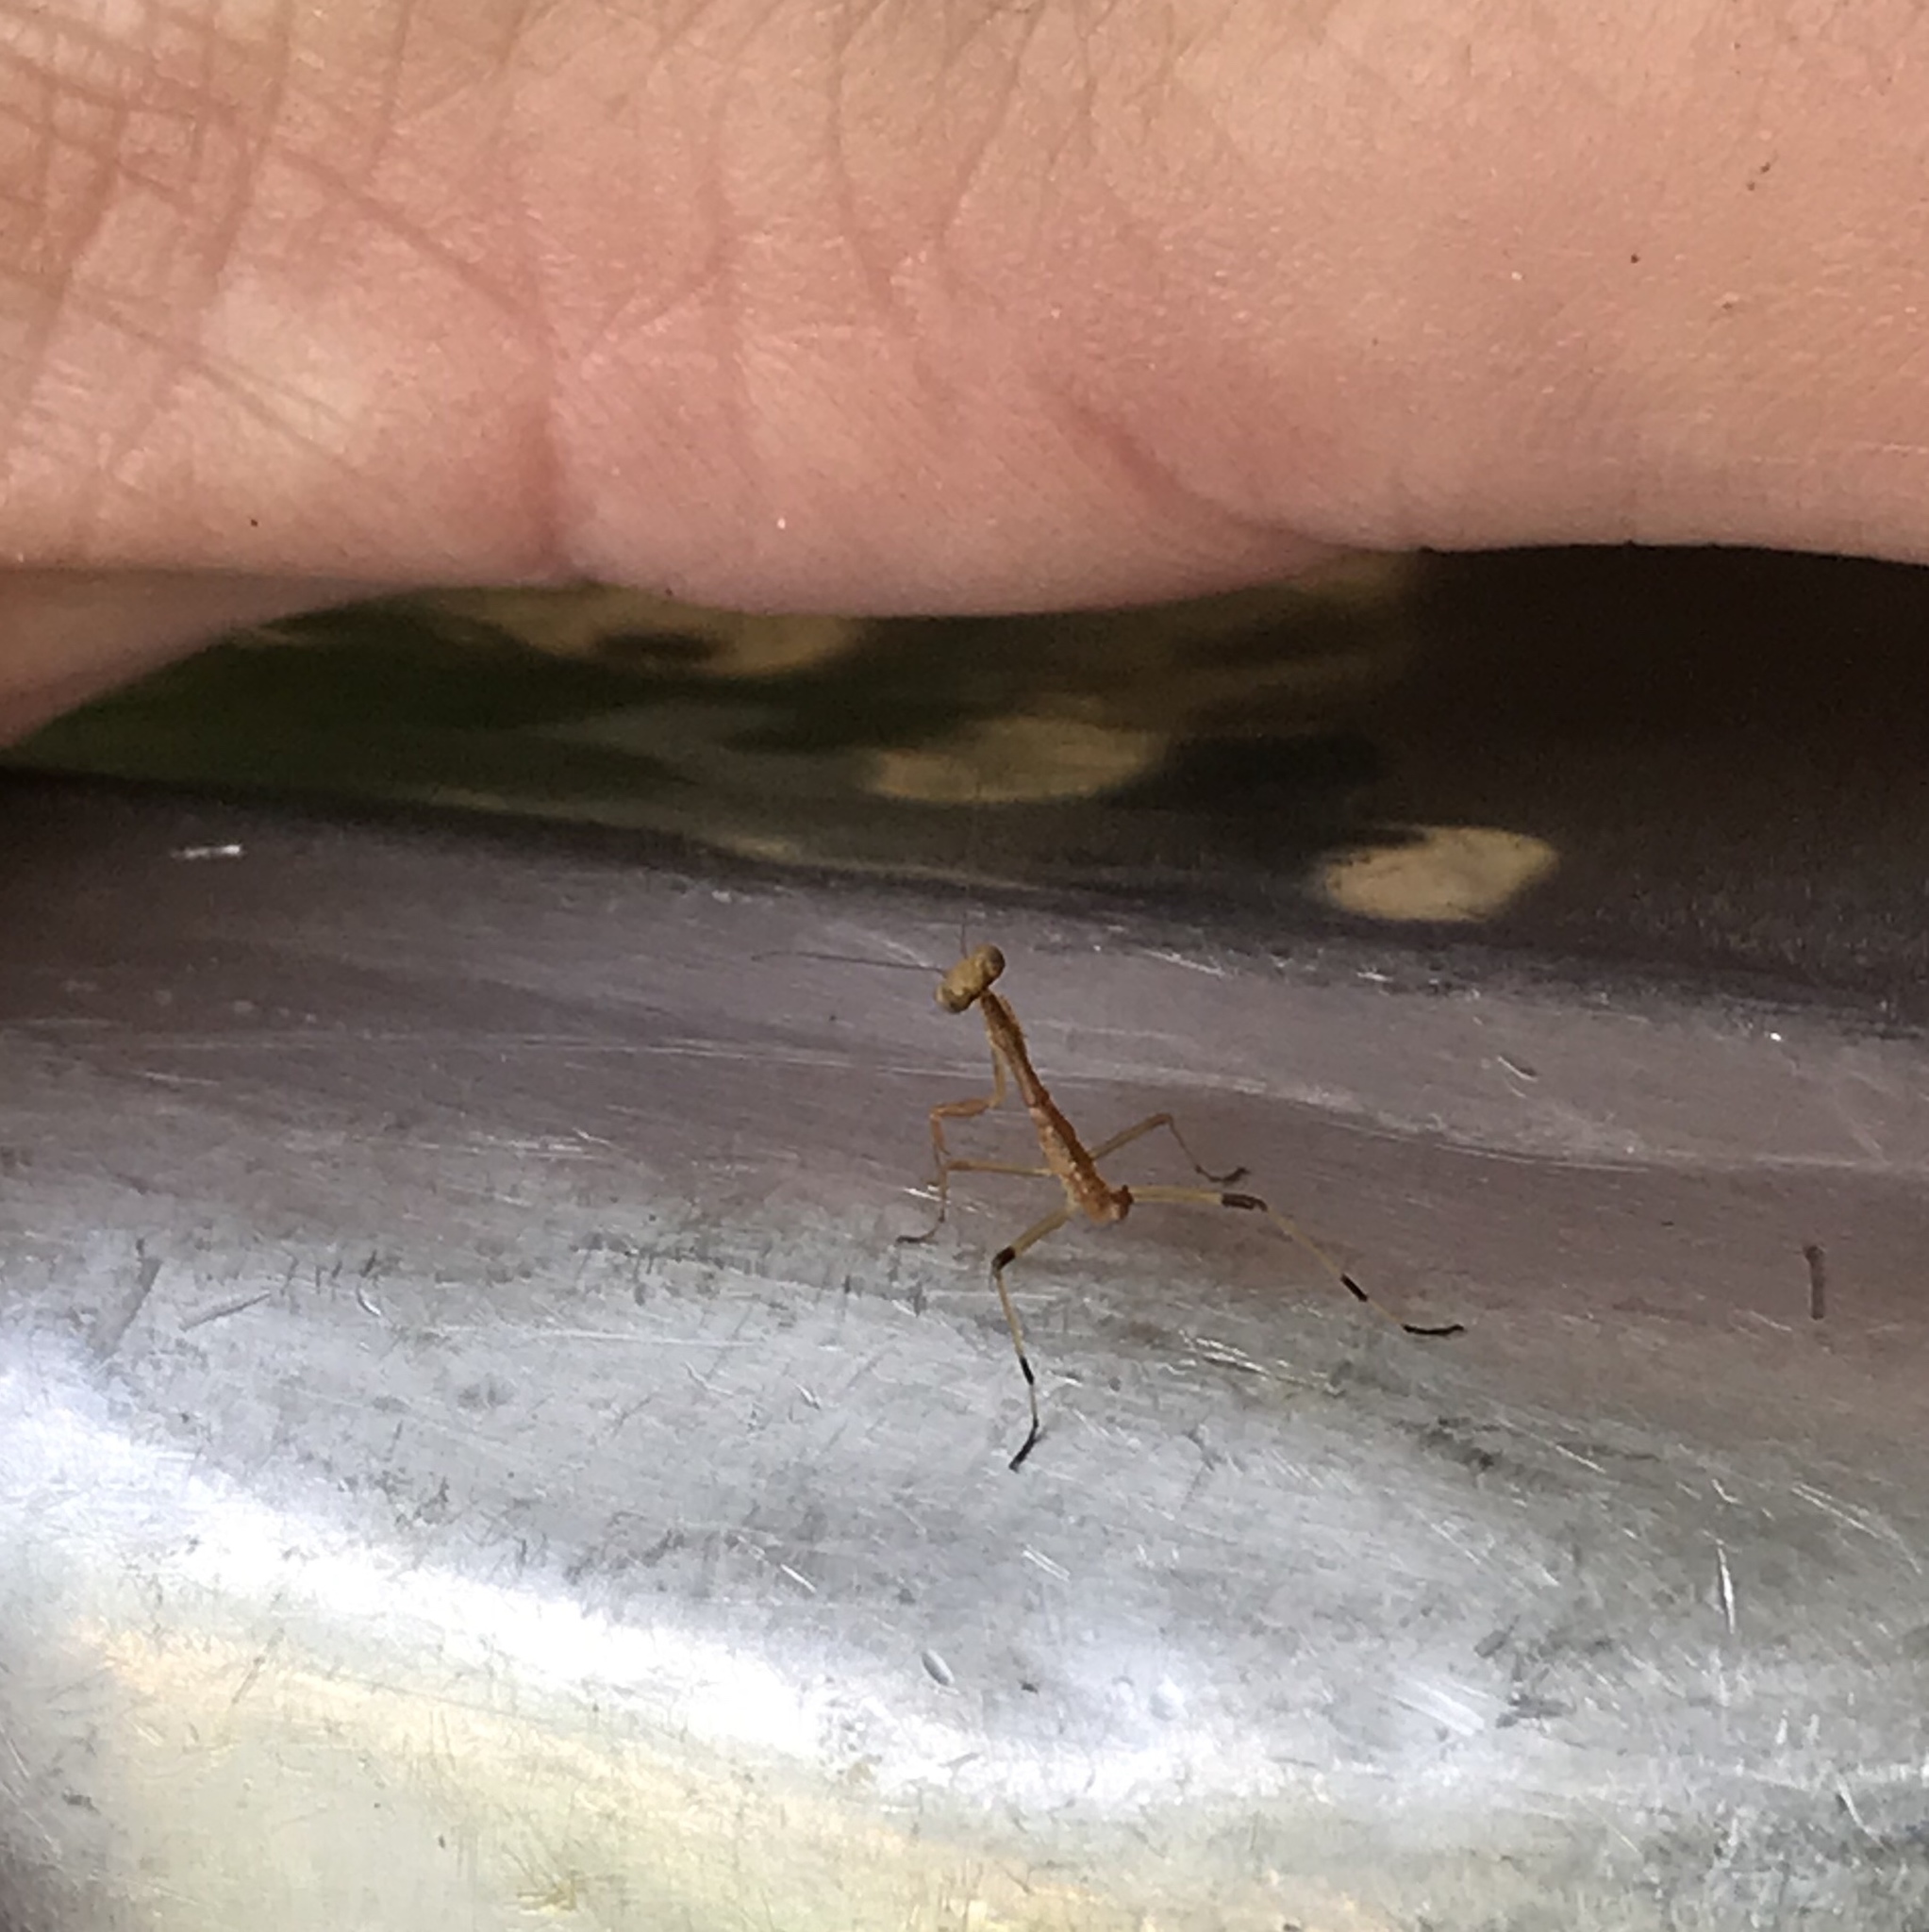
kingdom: Animalia
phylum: Arthropoda
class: Insecta
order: Mantodea
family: Mantidae
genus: Stagmomantis
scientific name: Stagmomantis carolina
